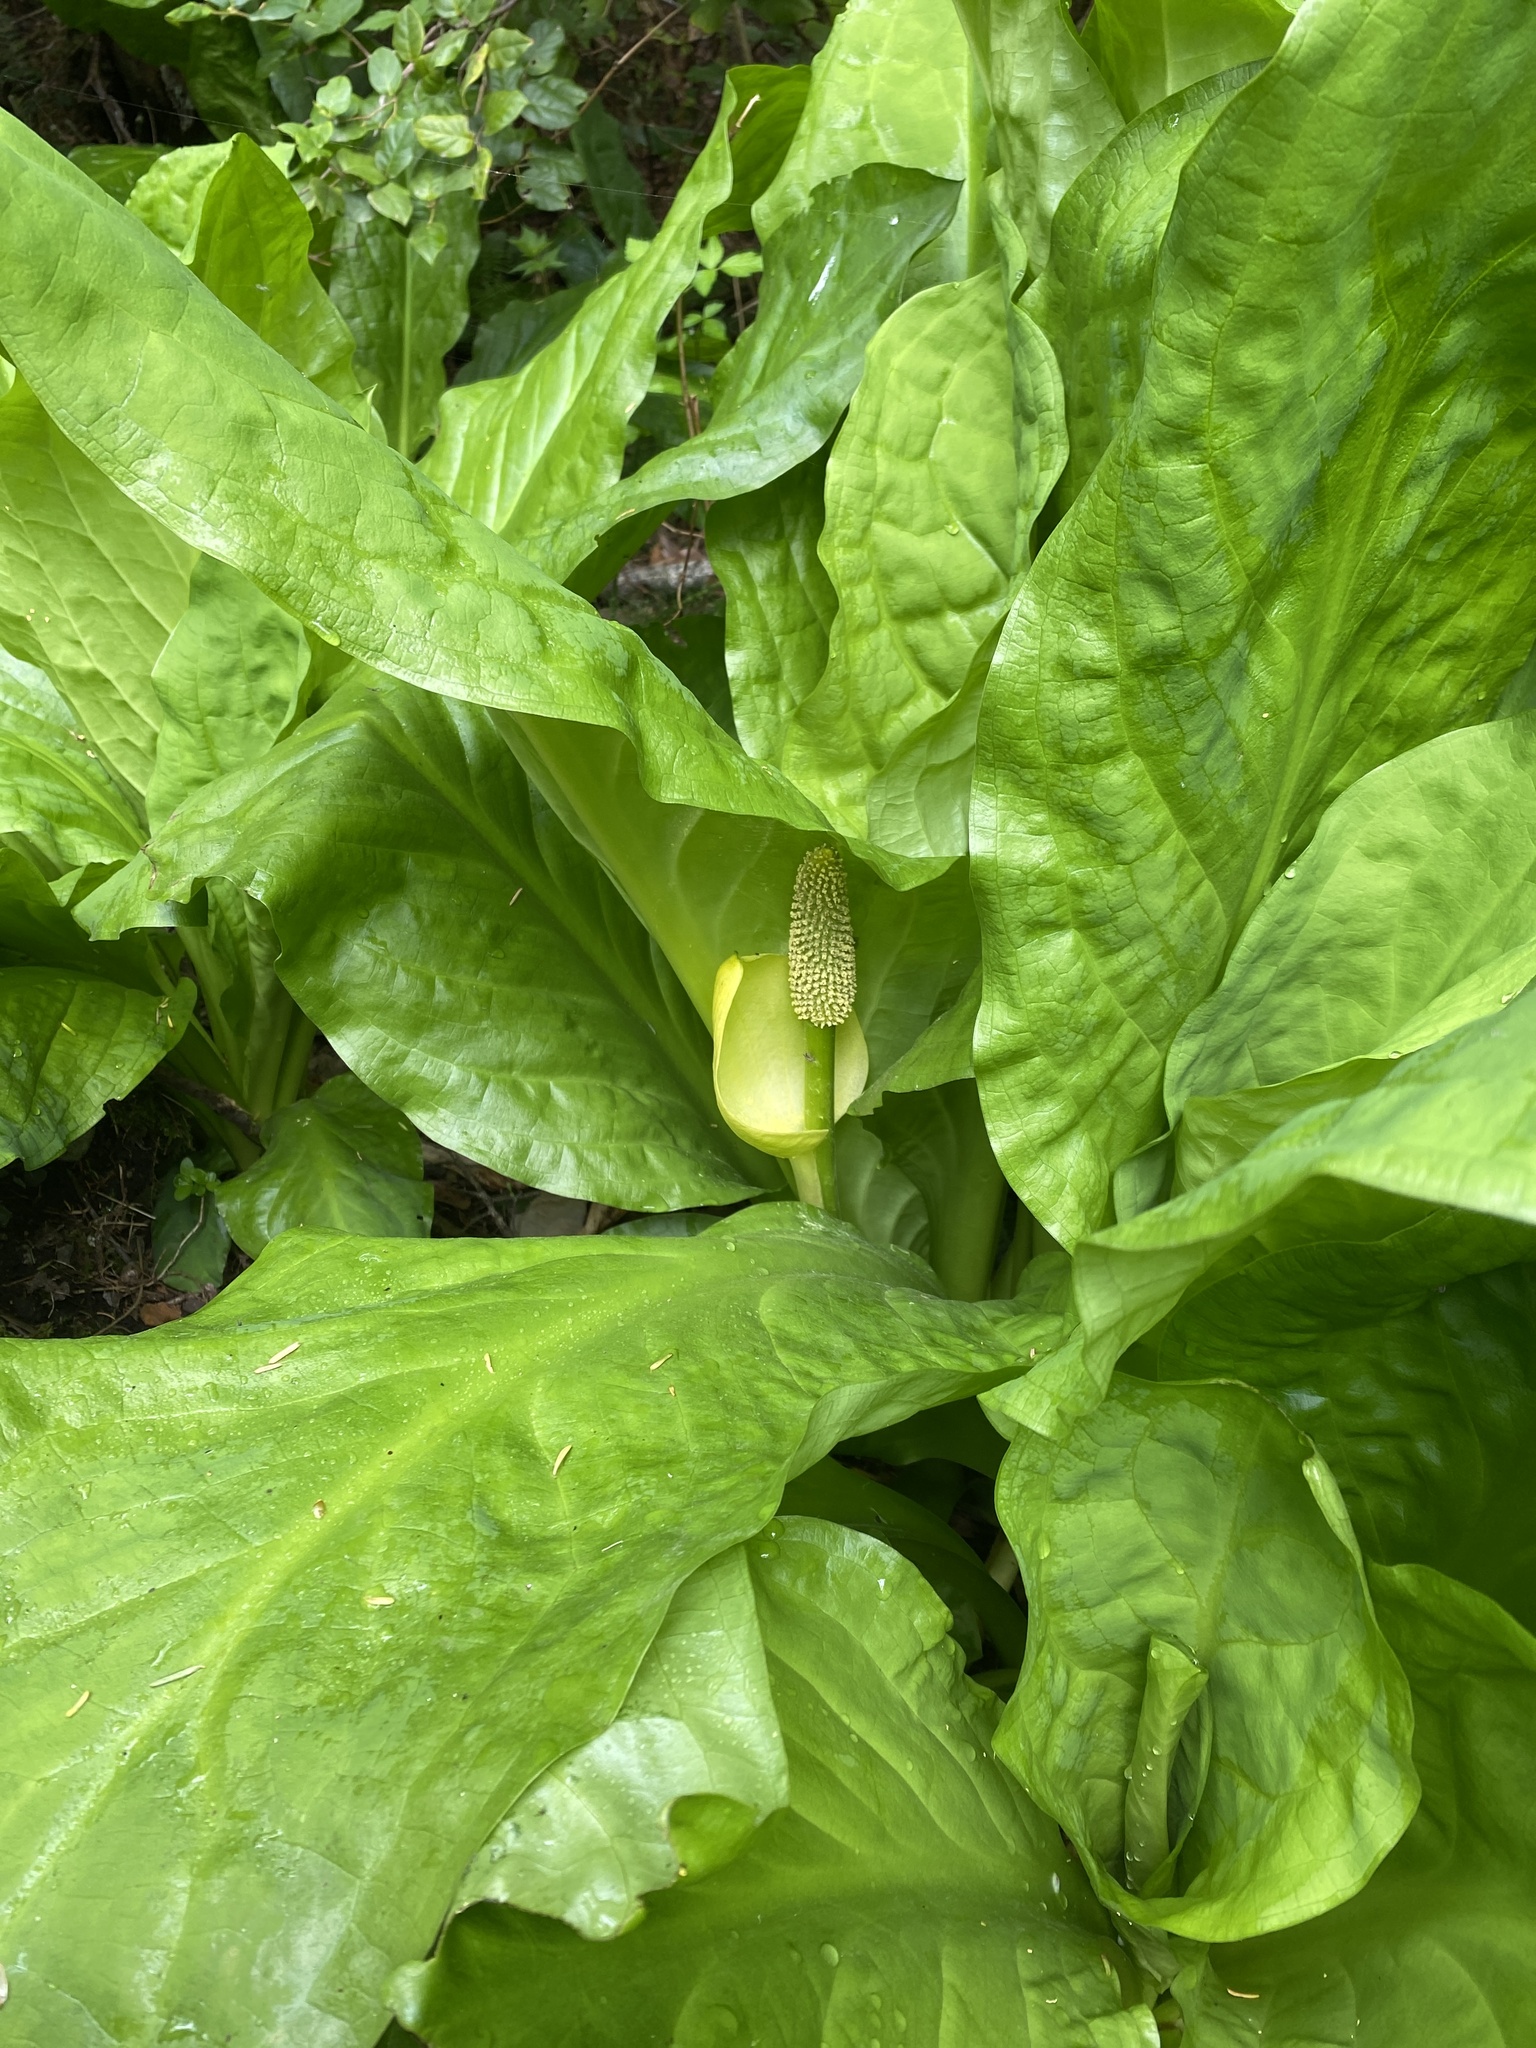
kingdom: Plantae
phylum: Tracheophyta
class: Liliopsida
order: Alismatales
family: Araceae
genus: Lysichiton
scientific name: Lysichiton americanus
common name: American skunk cabbage
